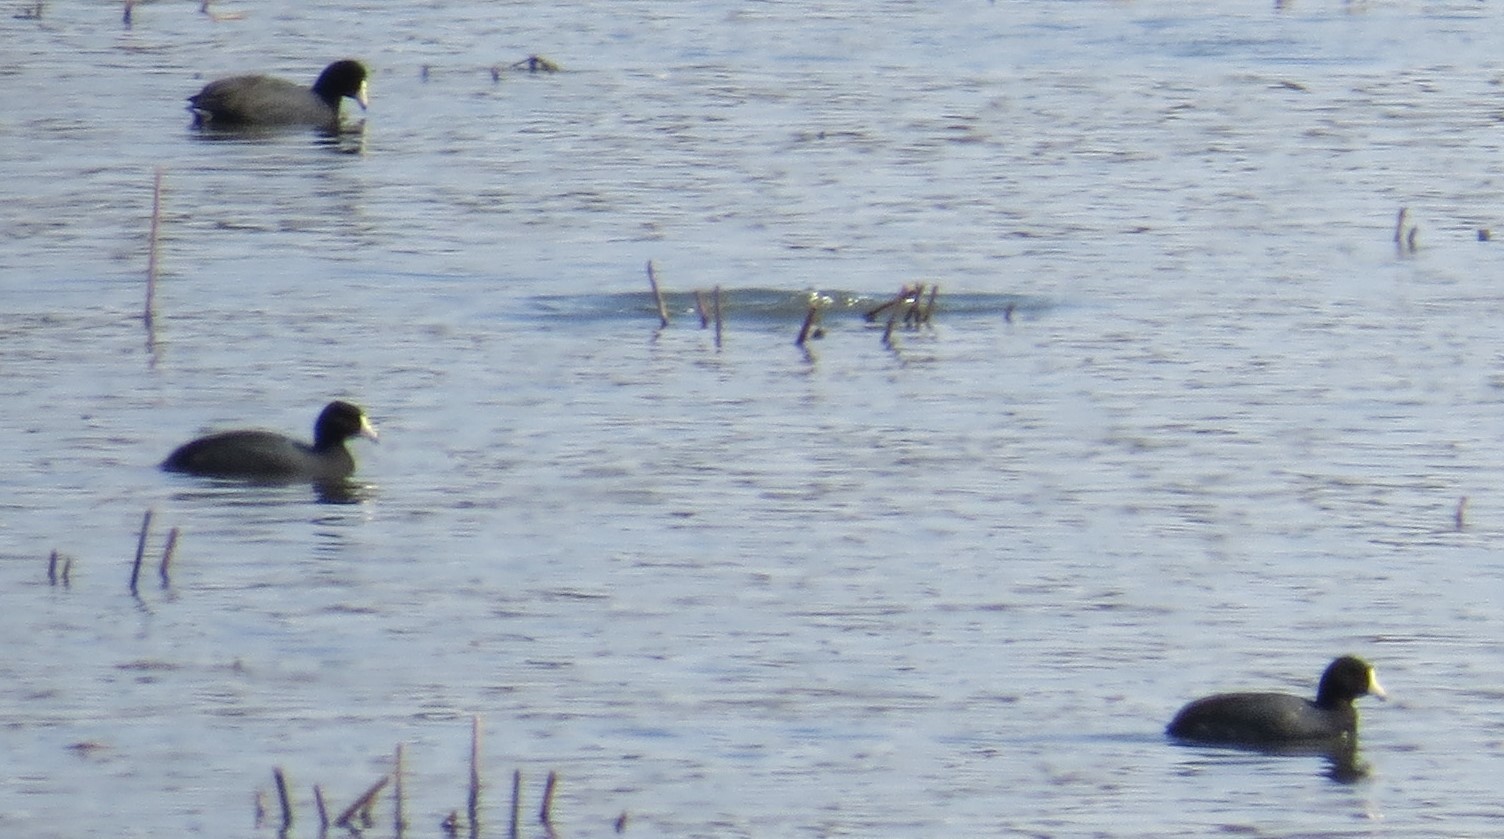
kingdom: Animalia
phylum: Chordata
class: Aves
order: Gruiformes
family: Rallidae
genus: Fulica
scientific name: Fulica americana
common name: American coot
